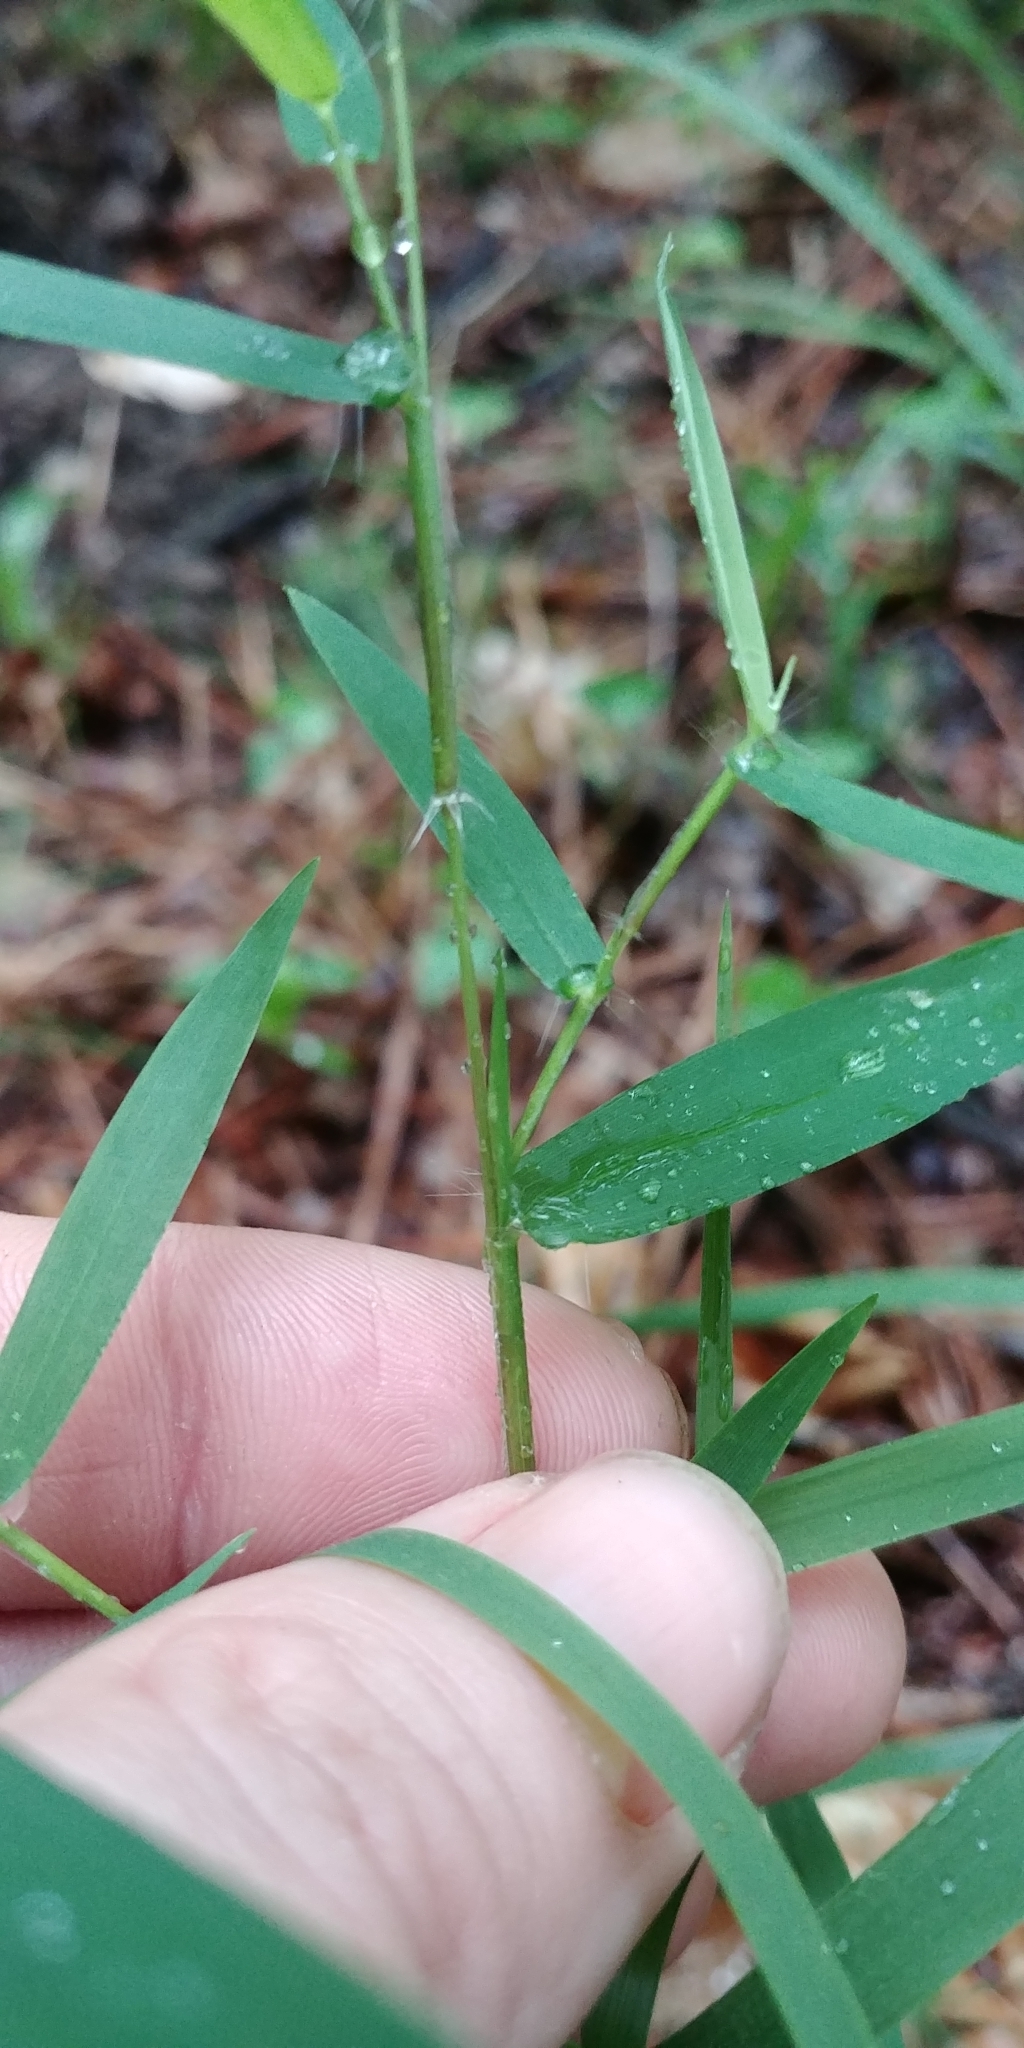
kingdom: Plantae
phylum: Tracheophyta
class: Liliopsida
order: Poales
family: Poaceae
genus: Dichanthelium
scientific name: Dichanthelium microcarpon
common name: Small-fruited witchgrass
